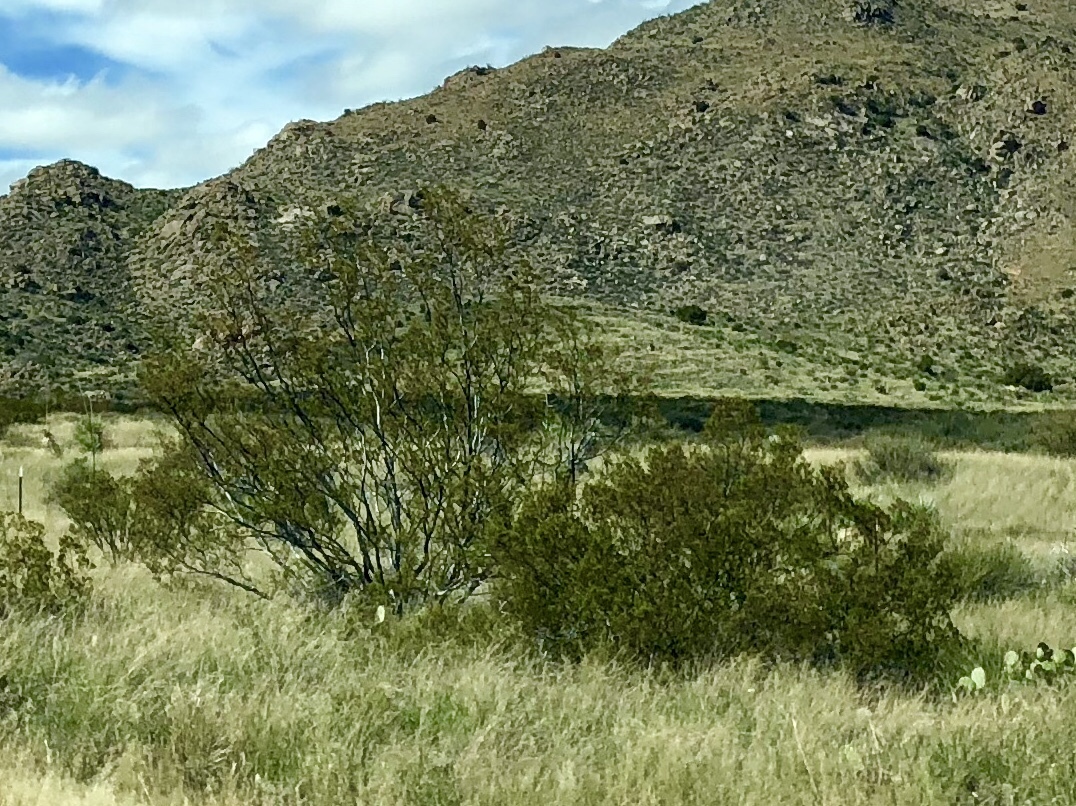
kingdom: Plantae
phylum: Tracheophyta
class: Magnoliopsida
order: Zygophyllales
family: Zygophyllaceae
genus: Larrea
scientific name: Larrea tridentata
